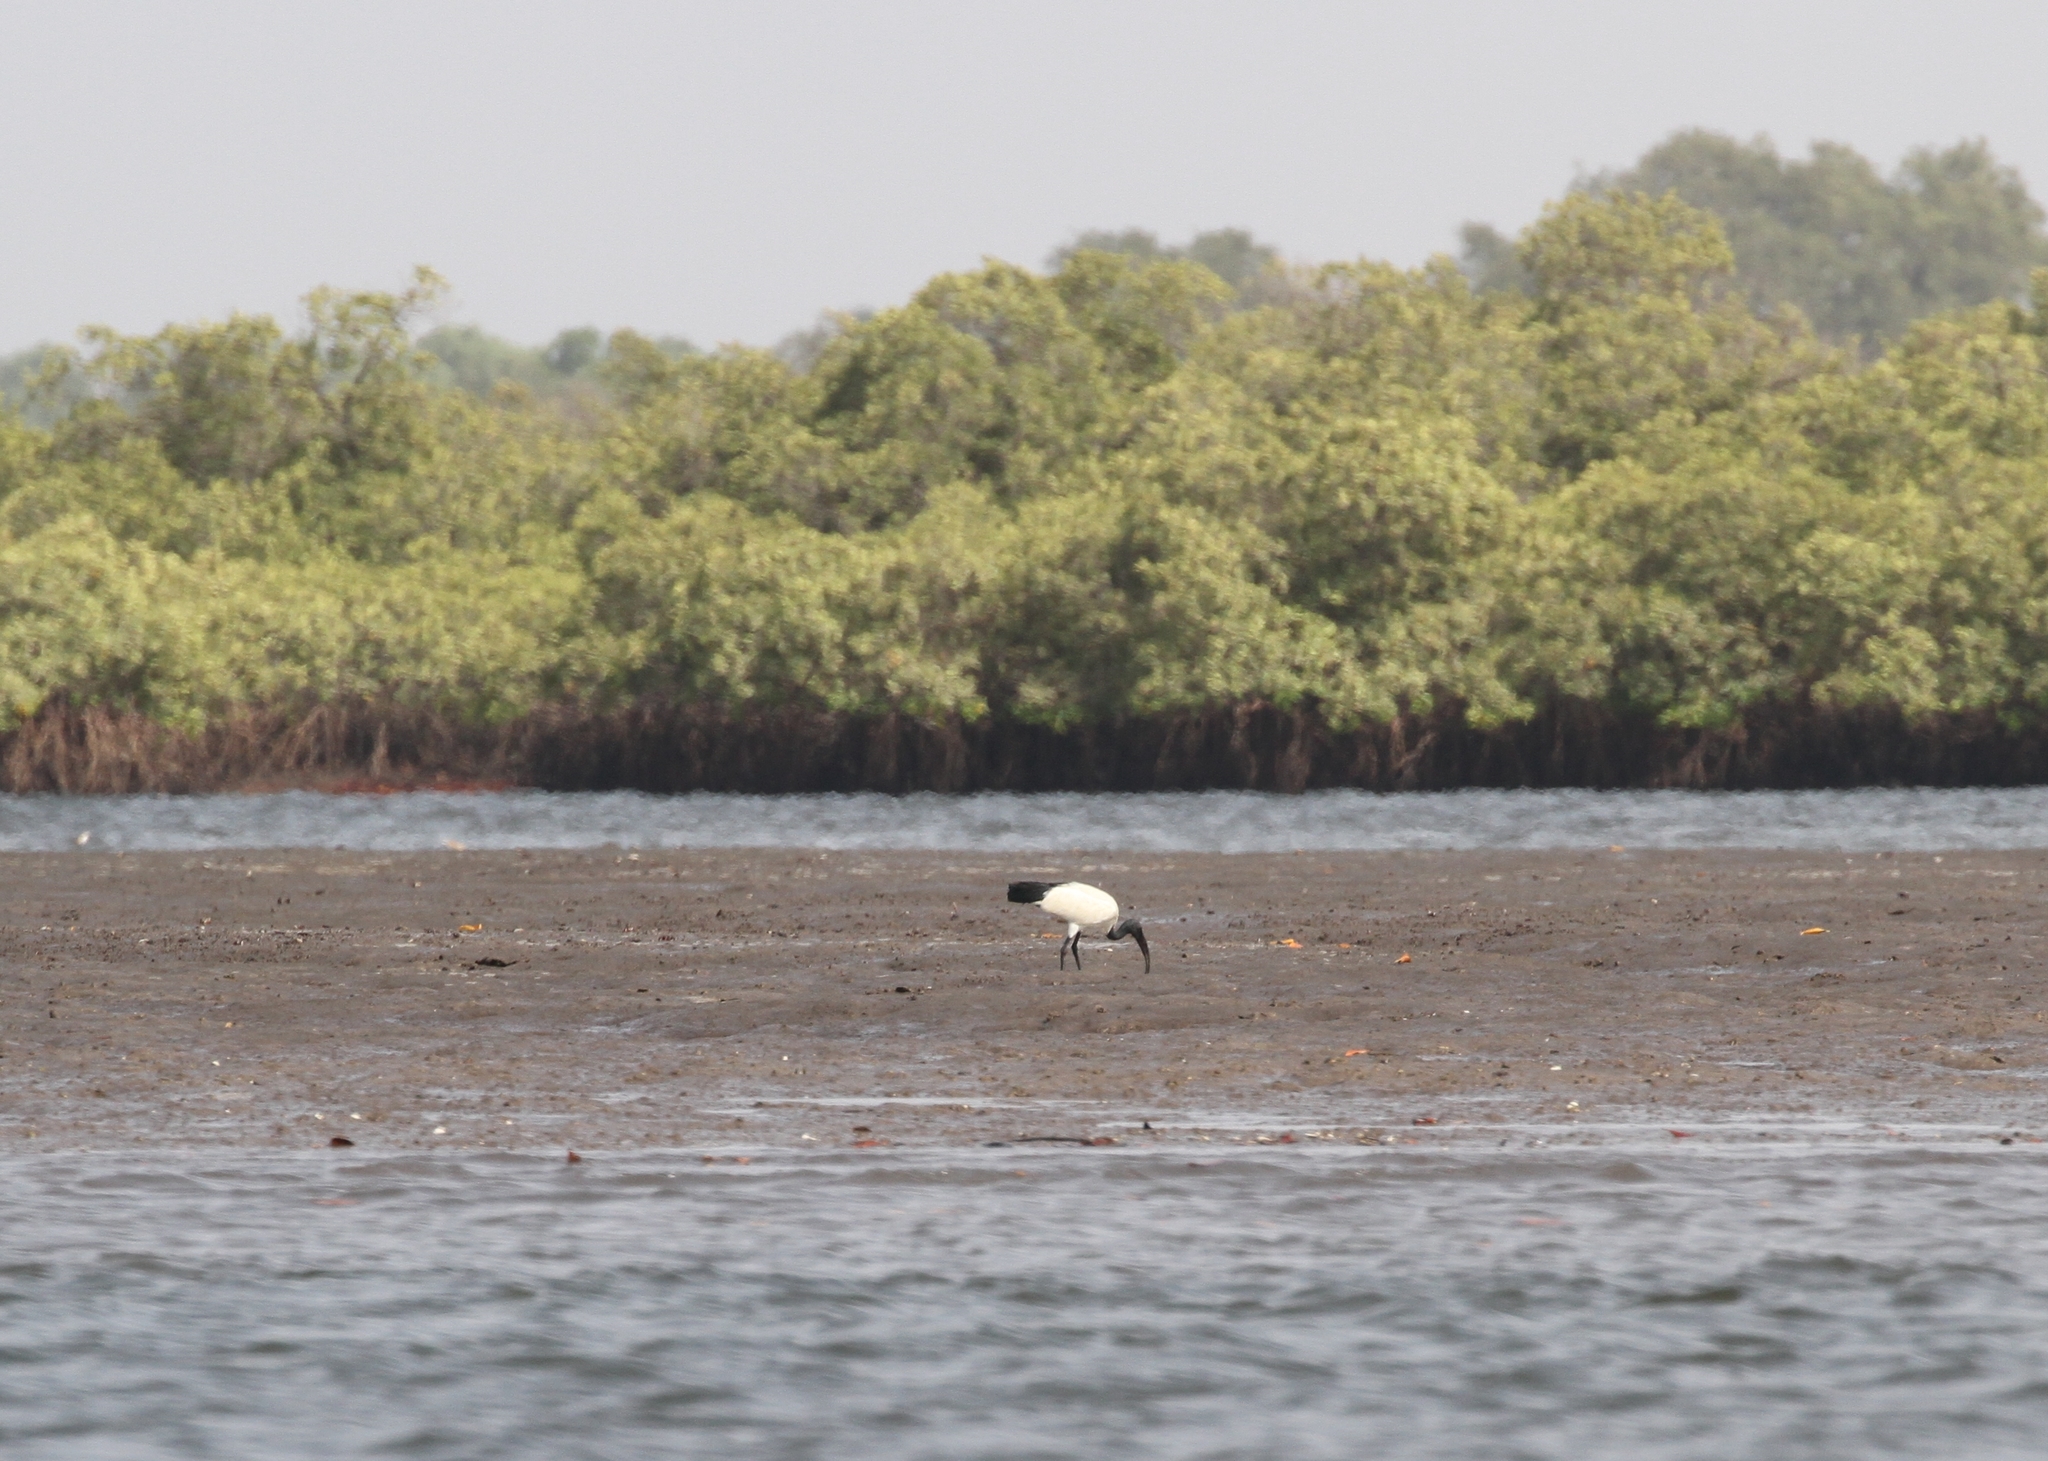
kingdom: Animalia
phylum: Chordata
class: Aves
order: Pelecaniformes
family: Threskiornithidae
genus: Threskiornis
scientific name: Threskiornis aethiopicus
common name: Sacred ibis
